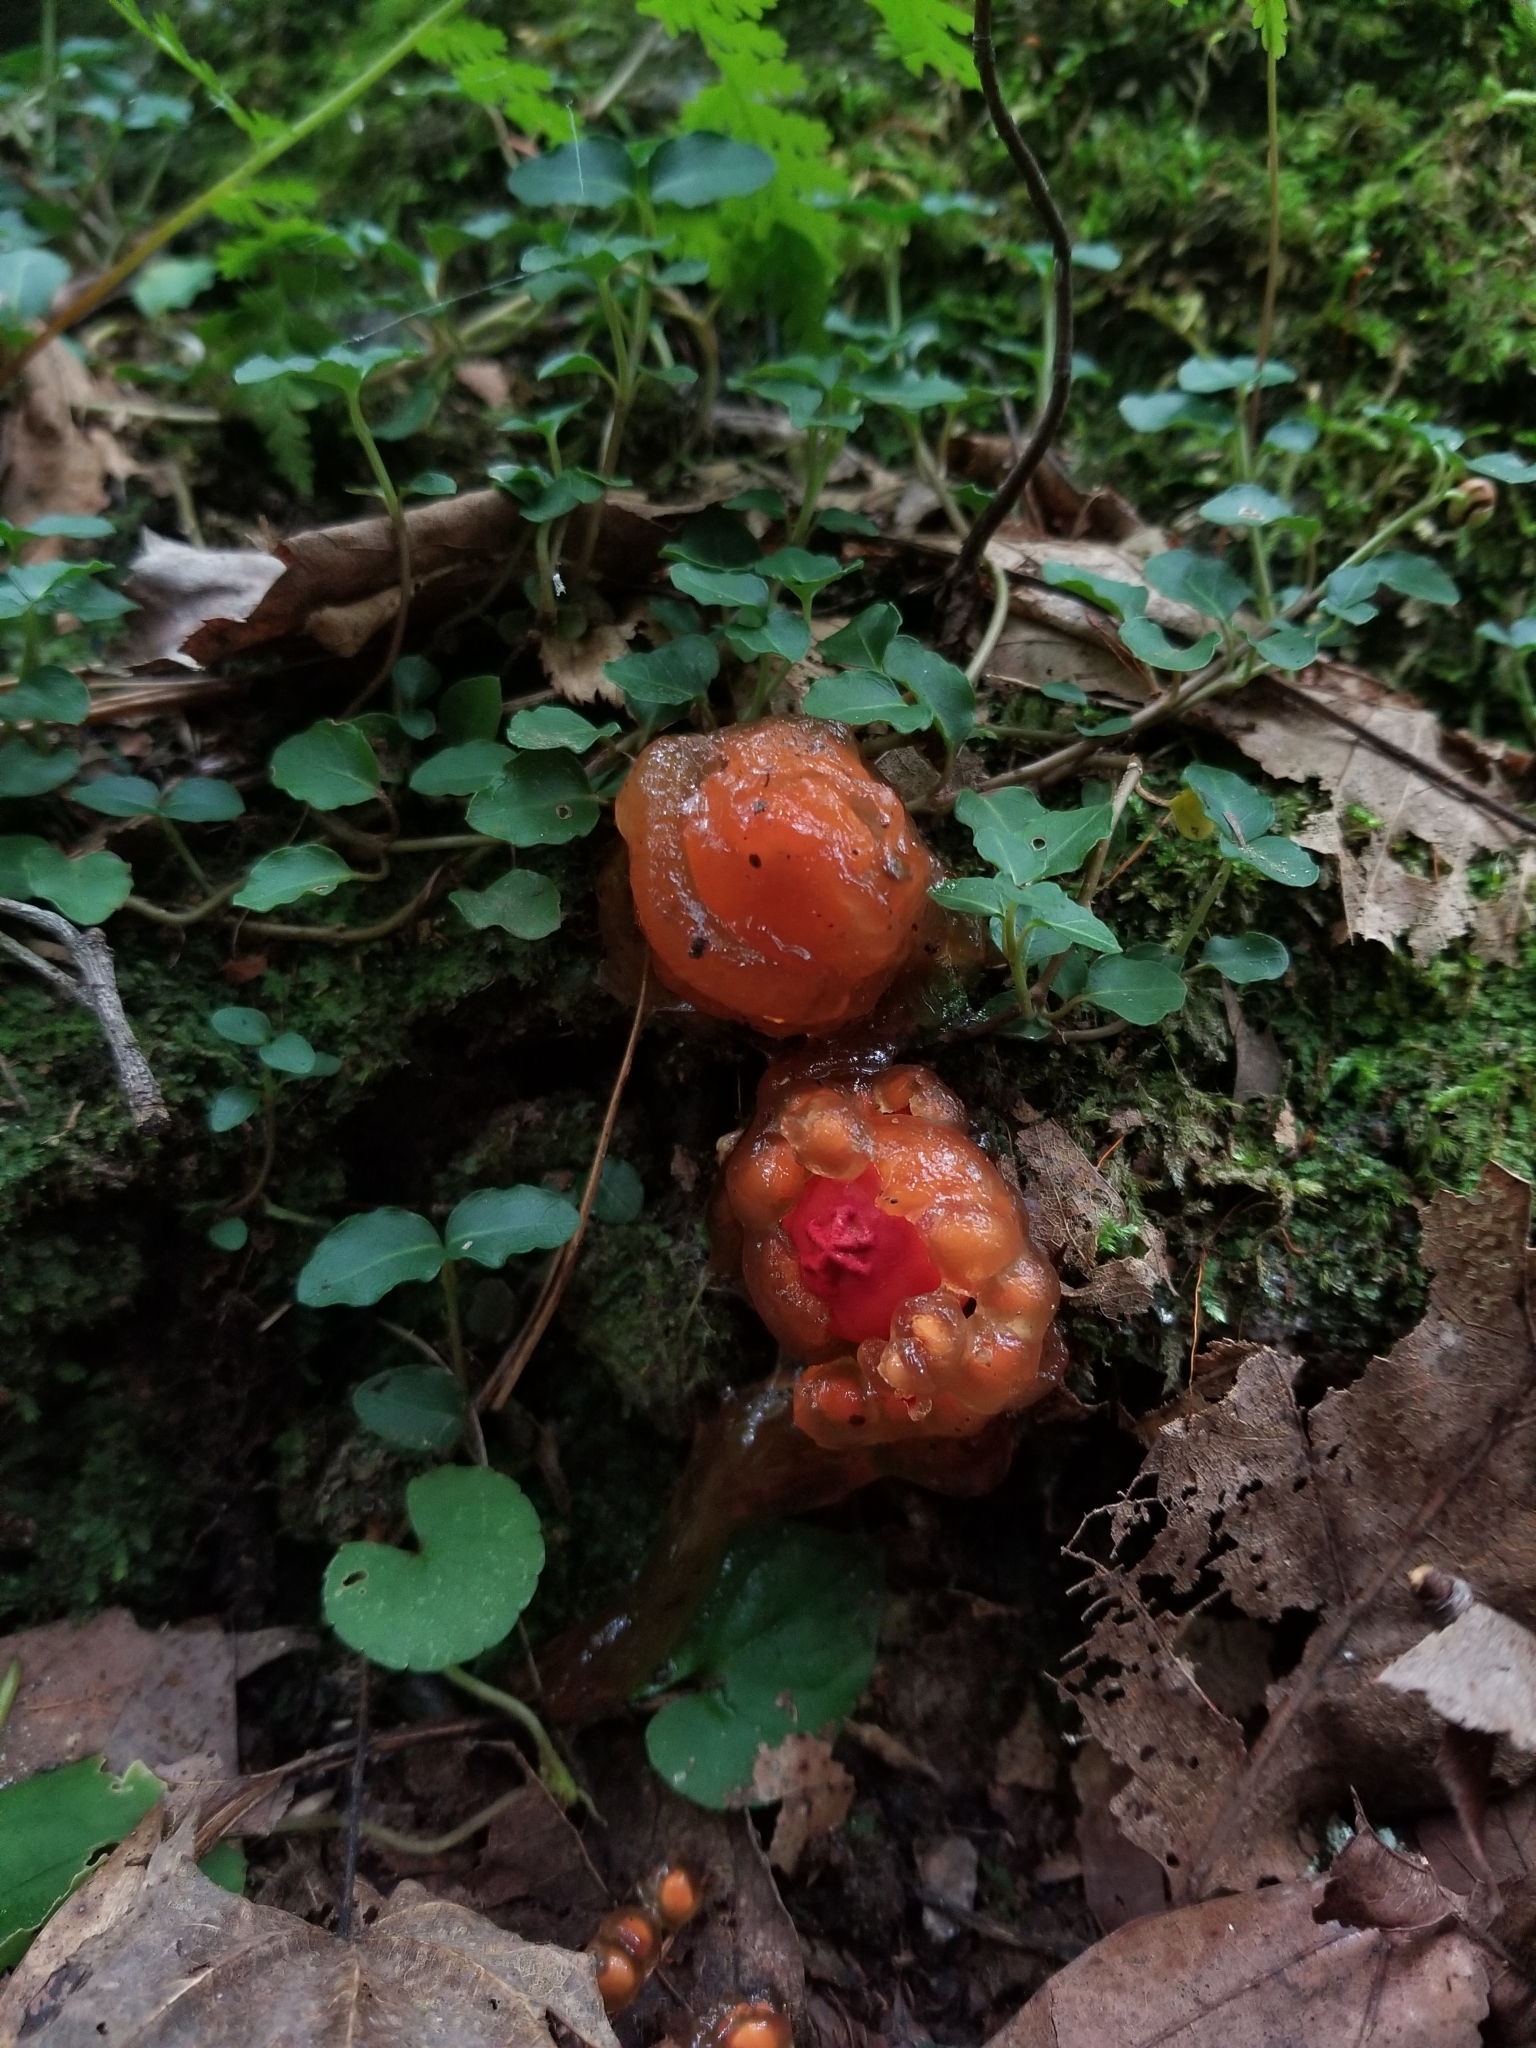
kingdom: Fungi
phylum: Basidiomycota
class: Agaricomycetes
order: Boletales
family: Calostomataceae
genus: Calostoma
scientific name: Calostoma cinnabarinum
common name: Stalked puffball-in-aspic
